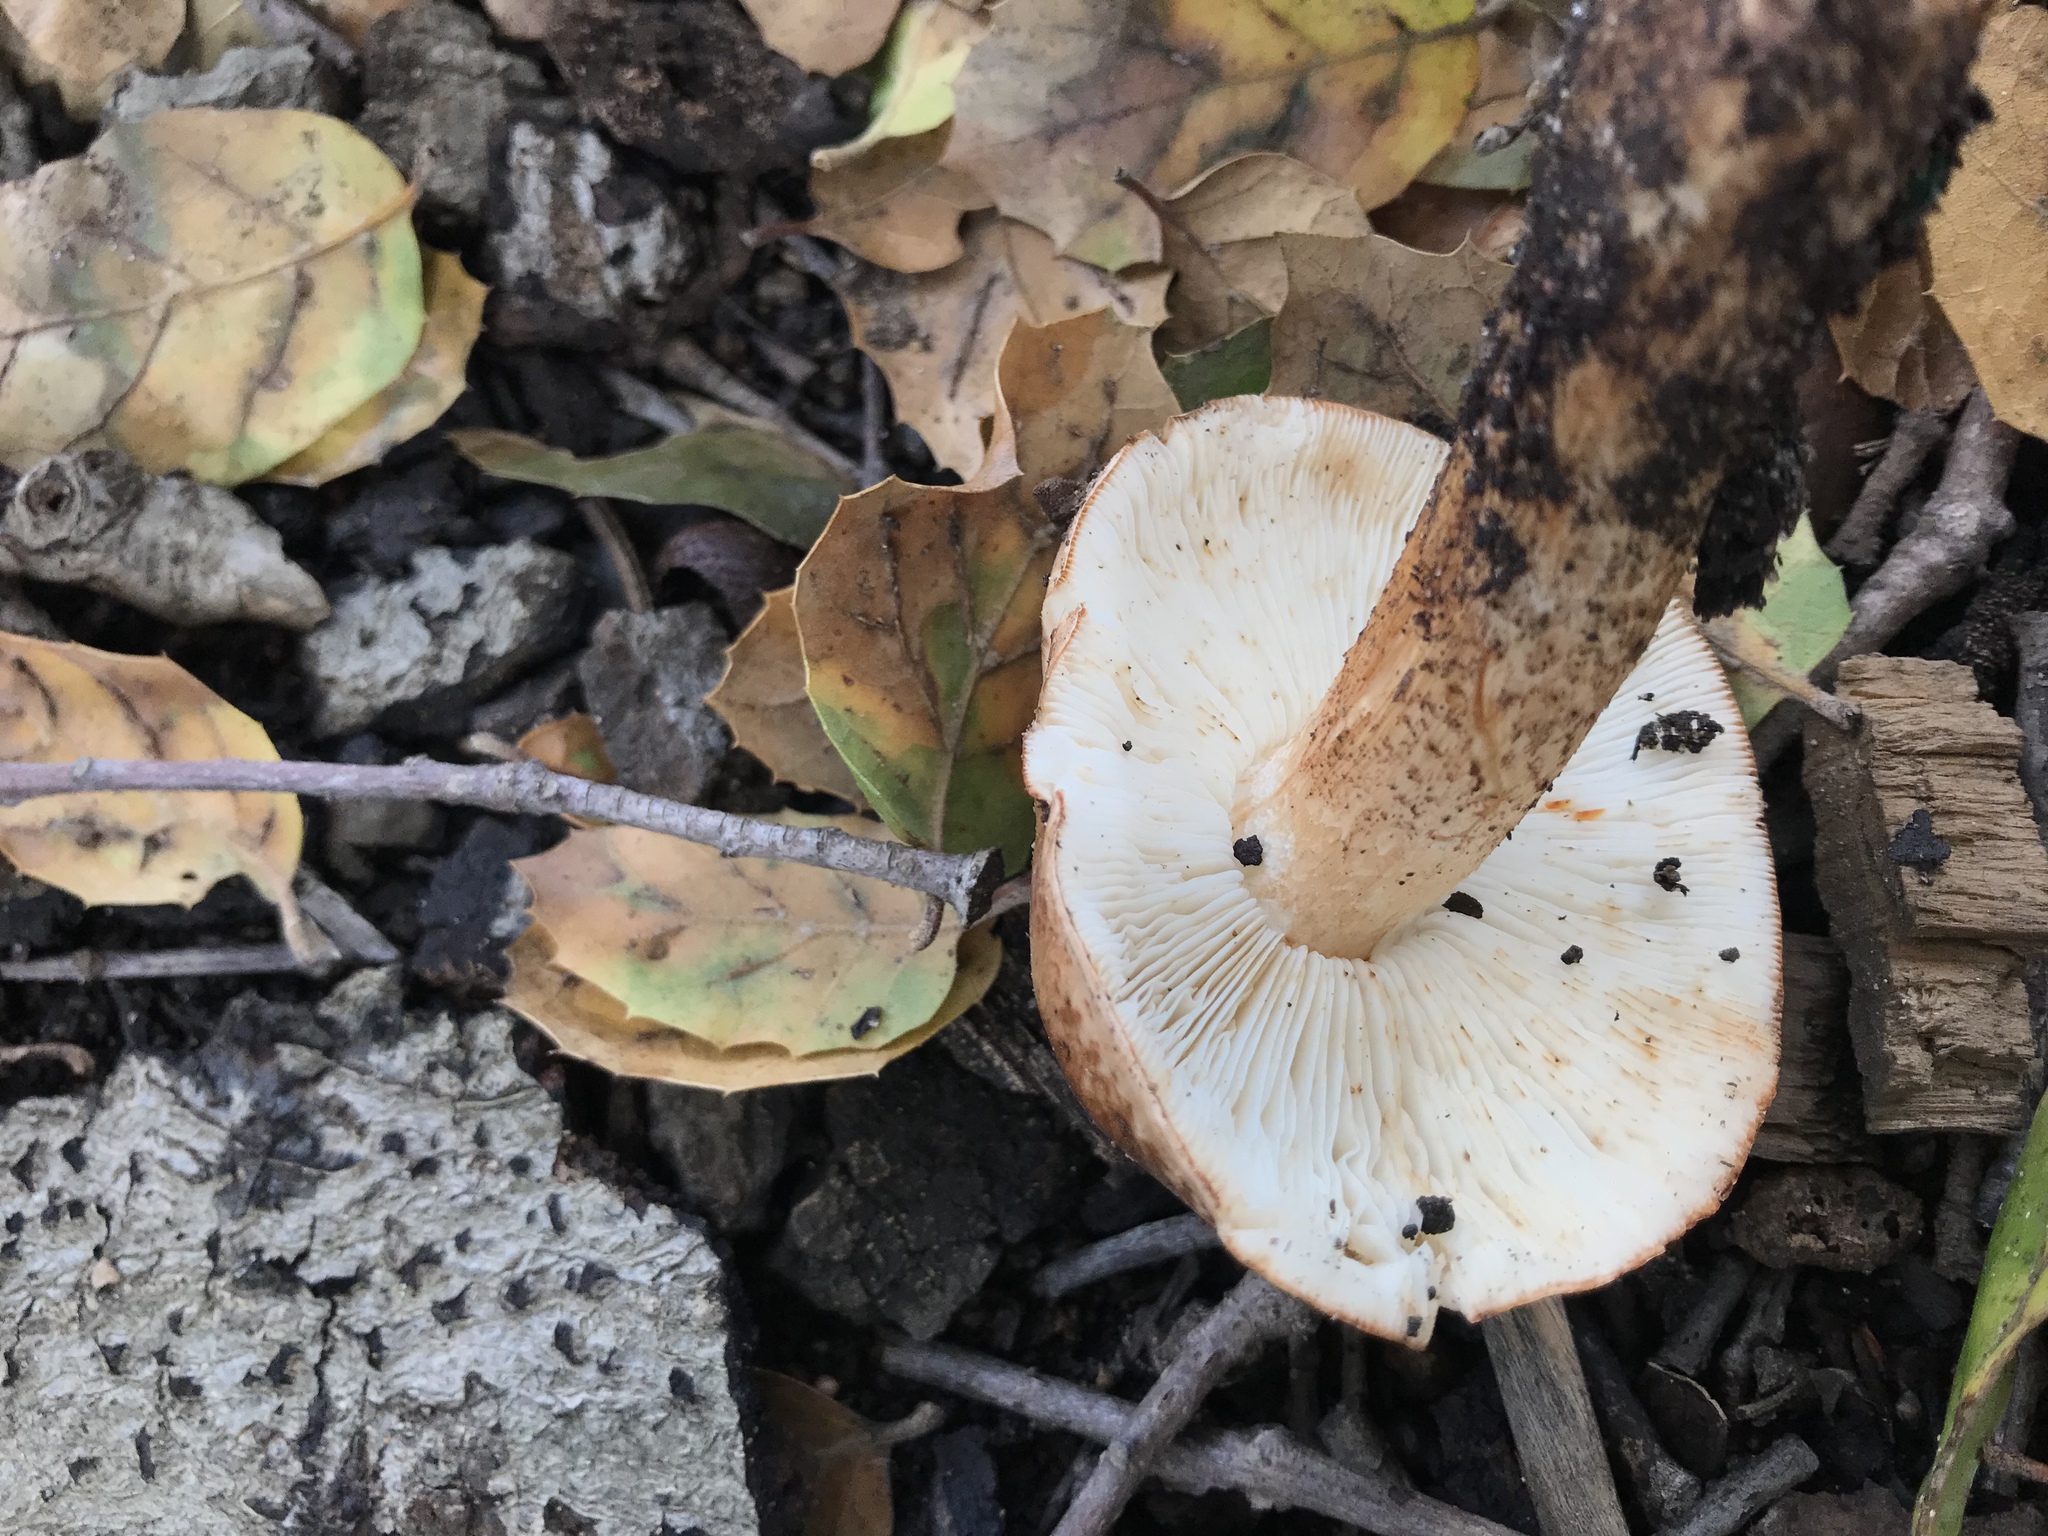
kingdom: Fungi
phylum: Basidiomycota
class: Agaricomycetes
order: Agaricales
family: Tricholomataceae
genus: Melanoleuca
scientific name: Melanoleuca dryophila
